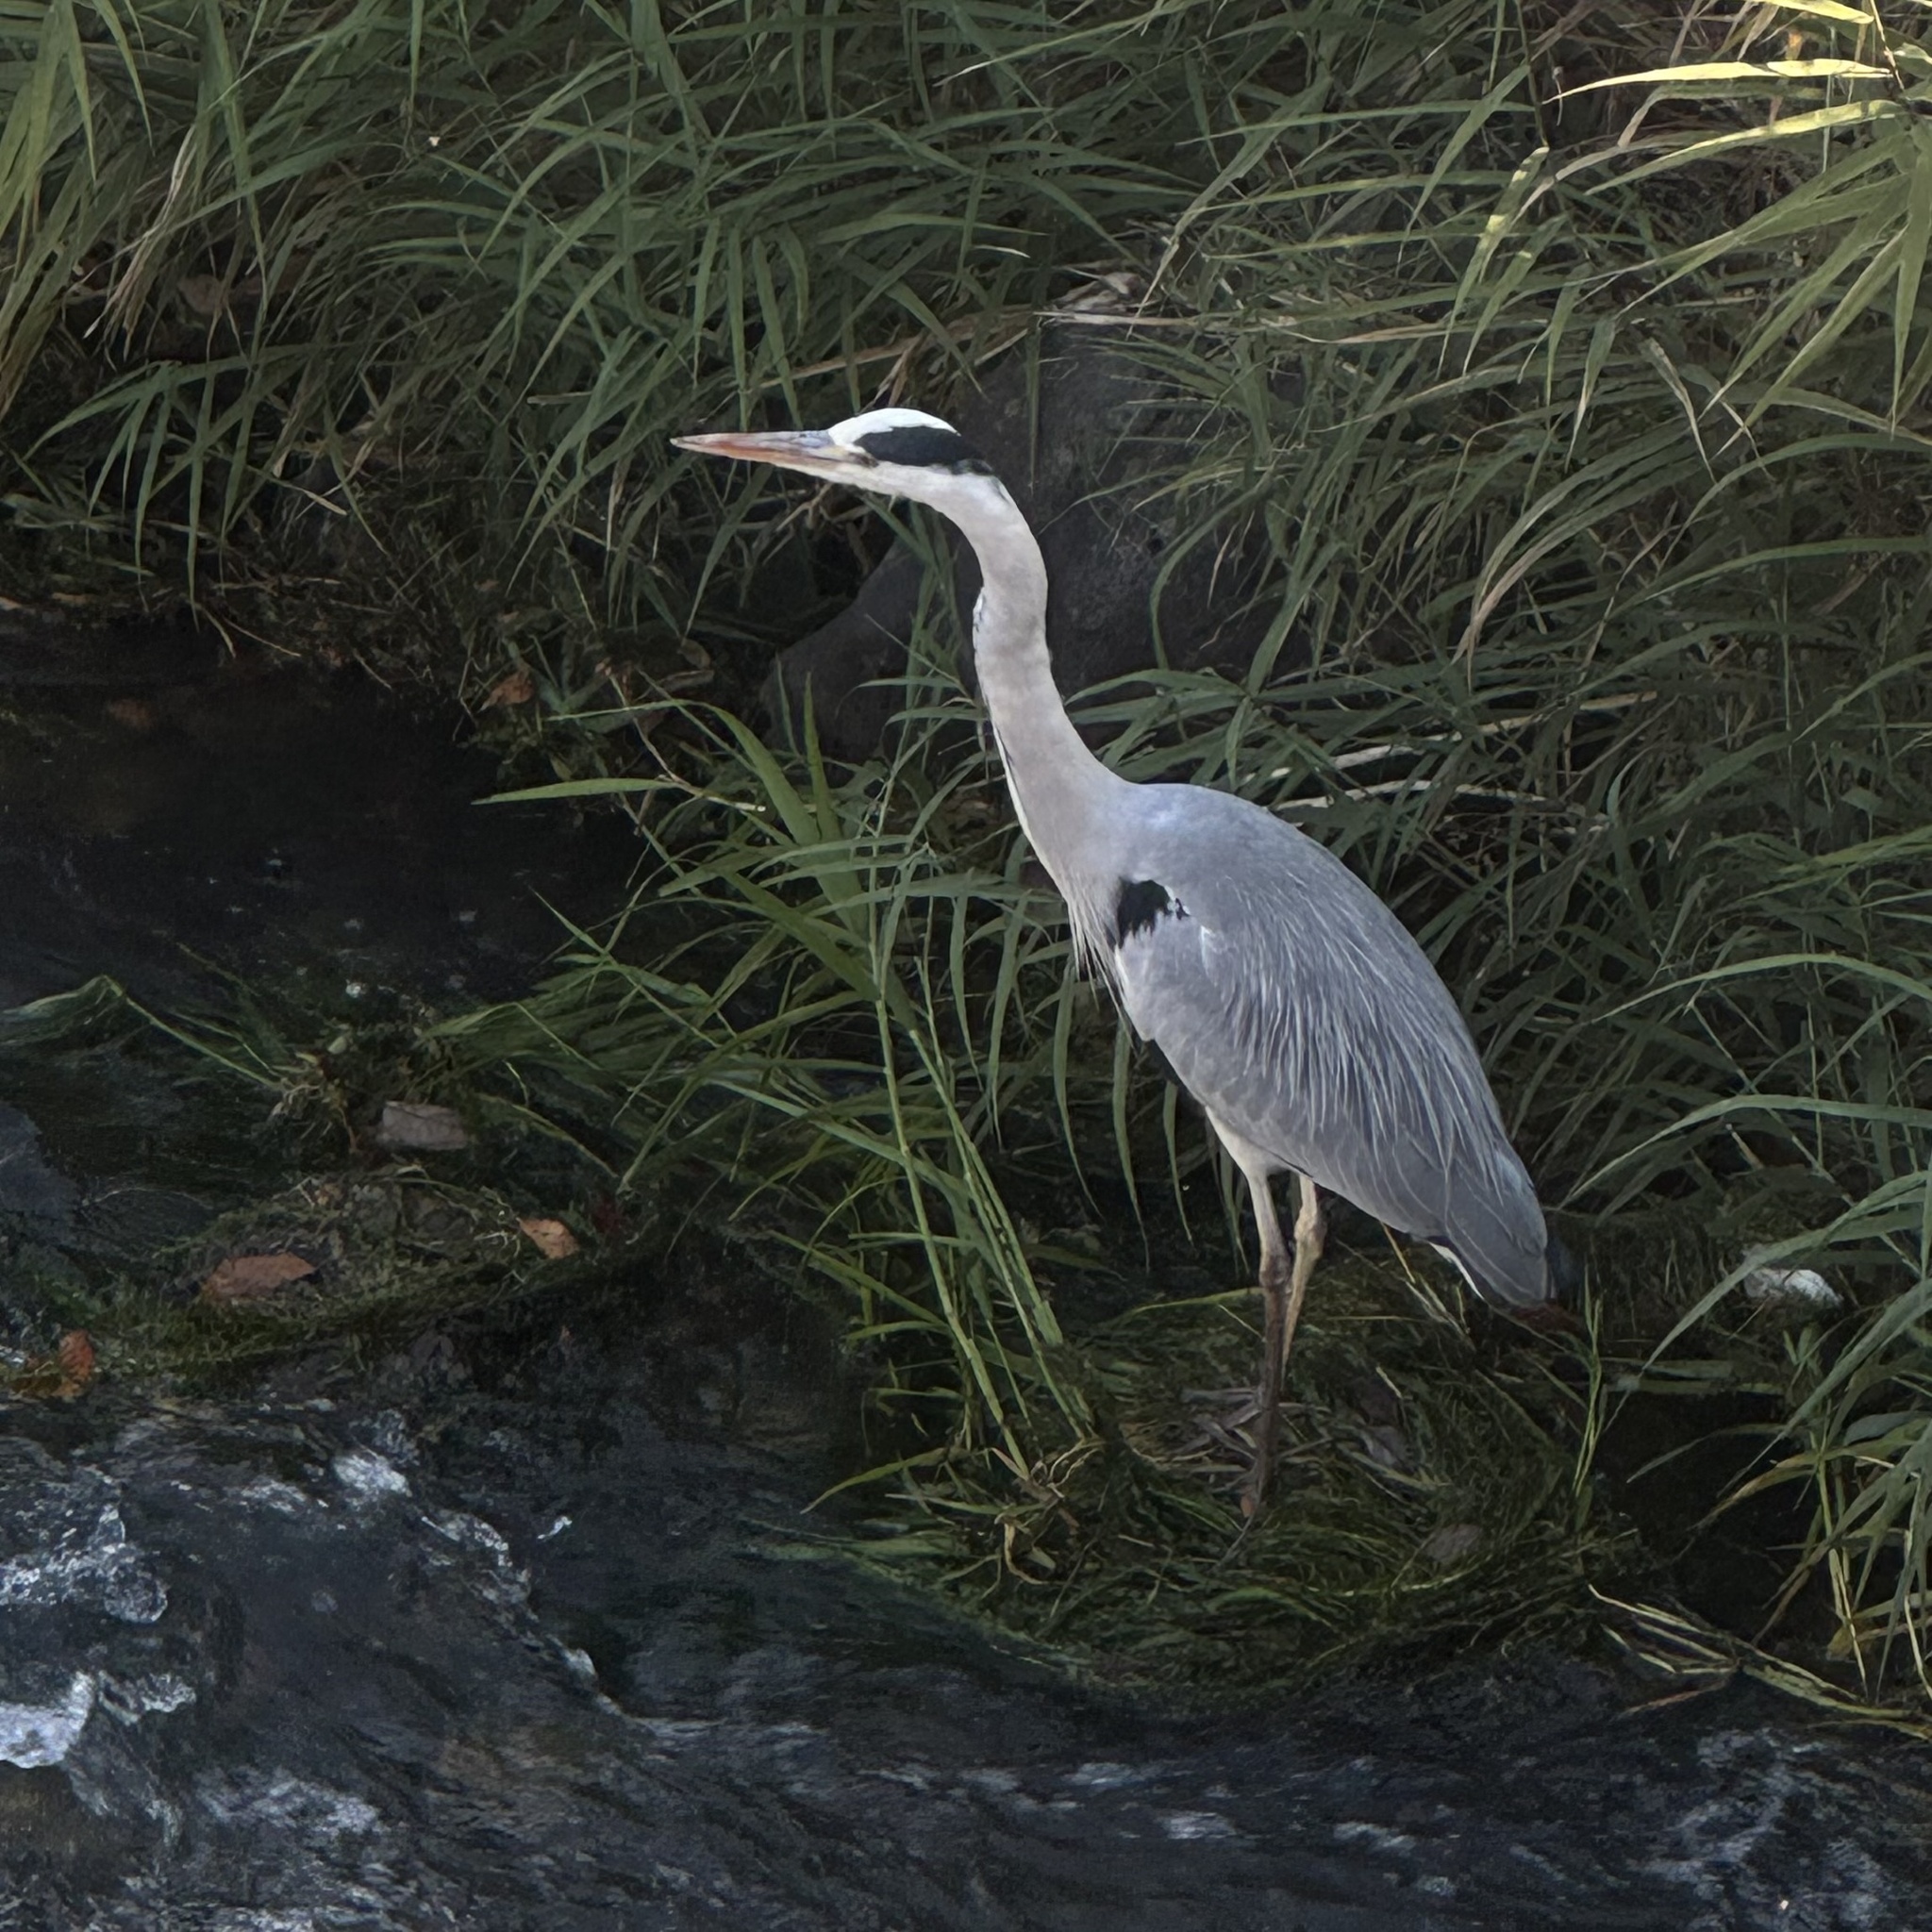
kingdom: Animalia
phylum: Chordata
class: Aves
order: Pelecaniformes
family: Ardeidae
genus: Ardea
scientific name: Ardea cinerea
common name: Grey heron
